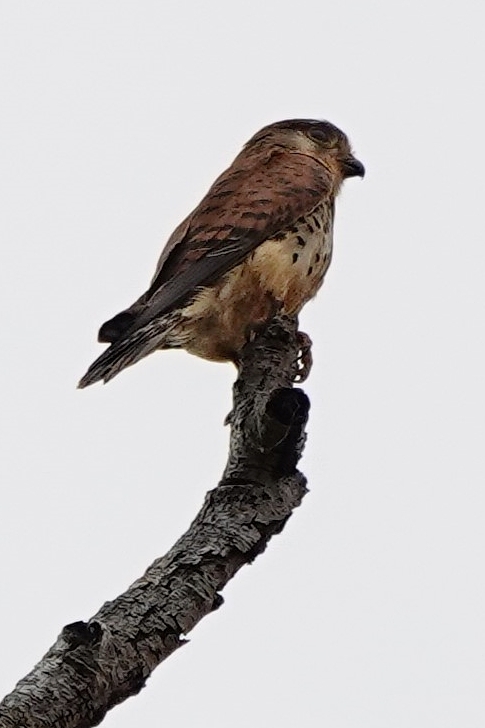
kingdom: Animalia
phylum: Chordata
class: Aves
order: Falconiformes
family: Falconidae
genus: Falco
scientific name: Falco newtoni
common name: Malagasy kestrel
